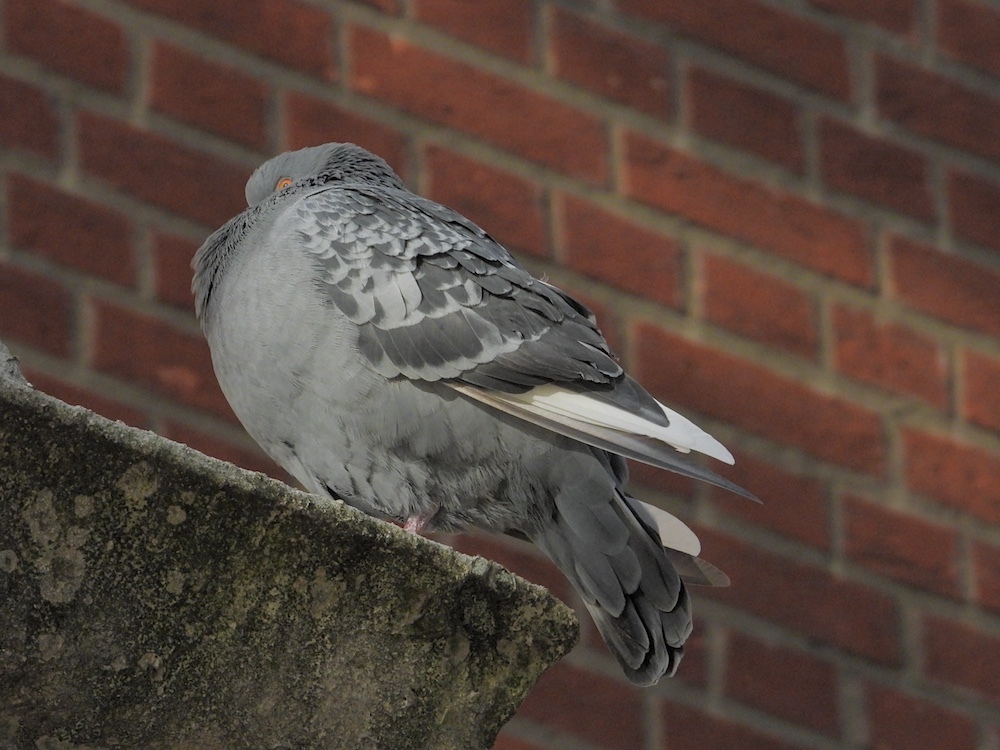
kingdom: Animalia
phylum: Chordata
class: Aves
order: Columbiformes
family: Columbidae
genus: Columba
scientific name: Columba livia
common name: Rock pigeon
